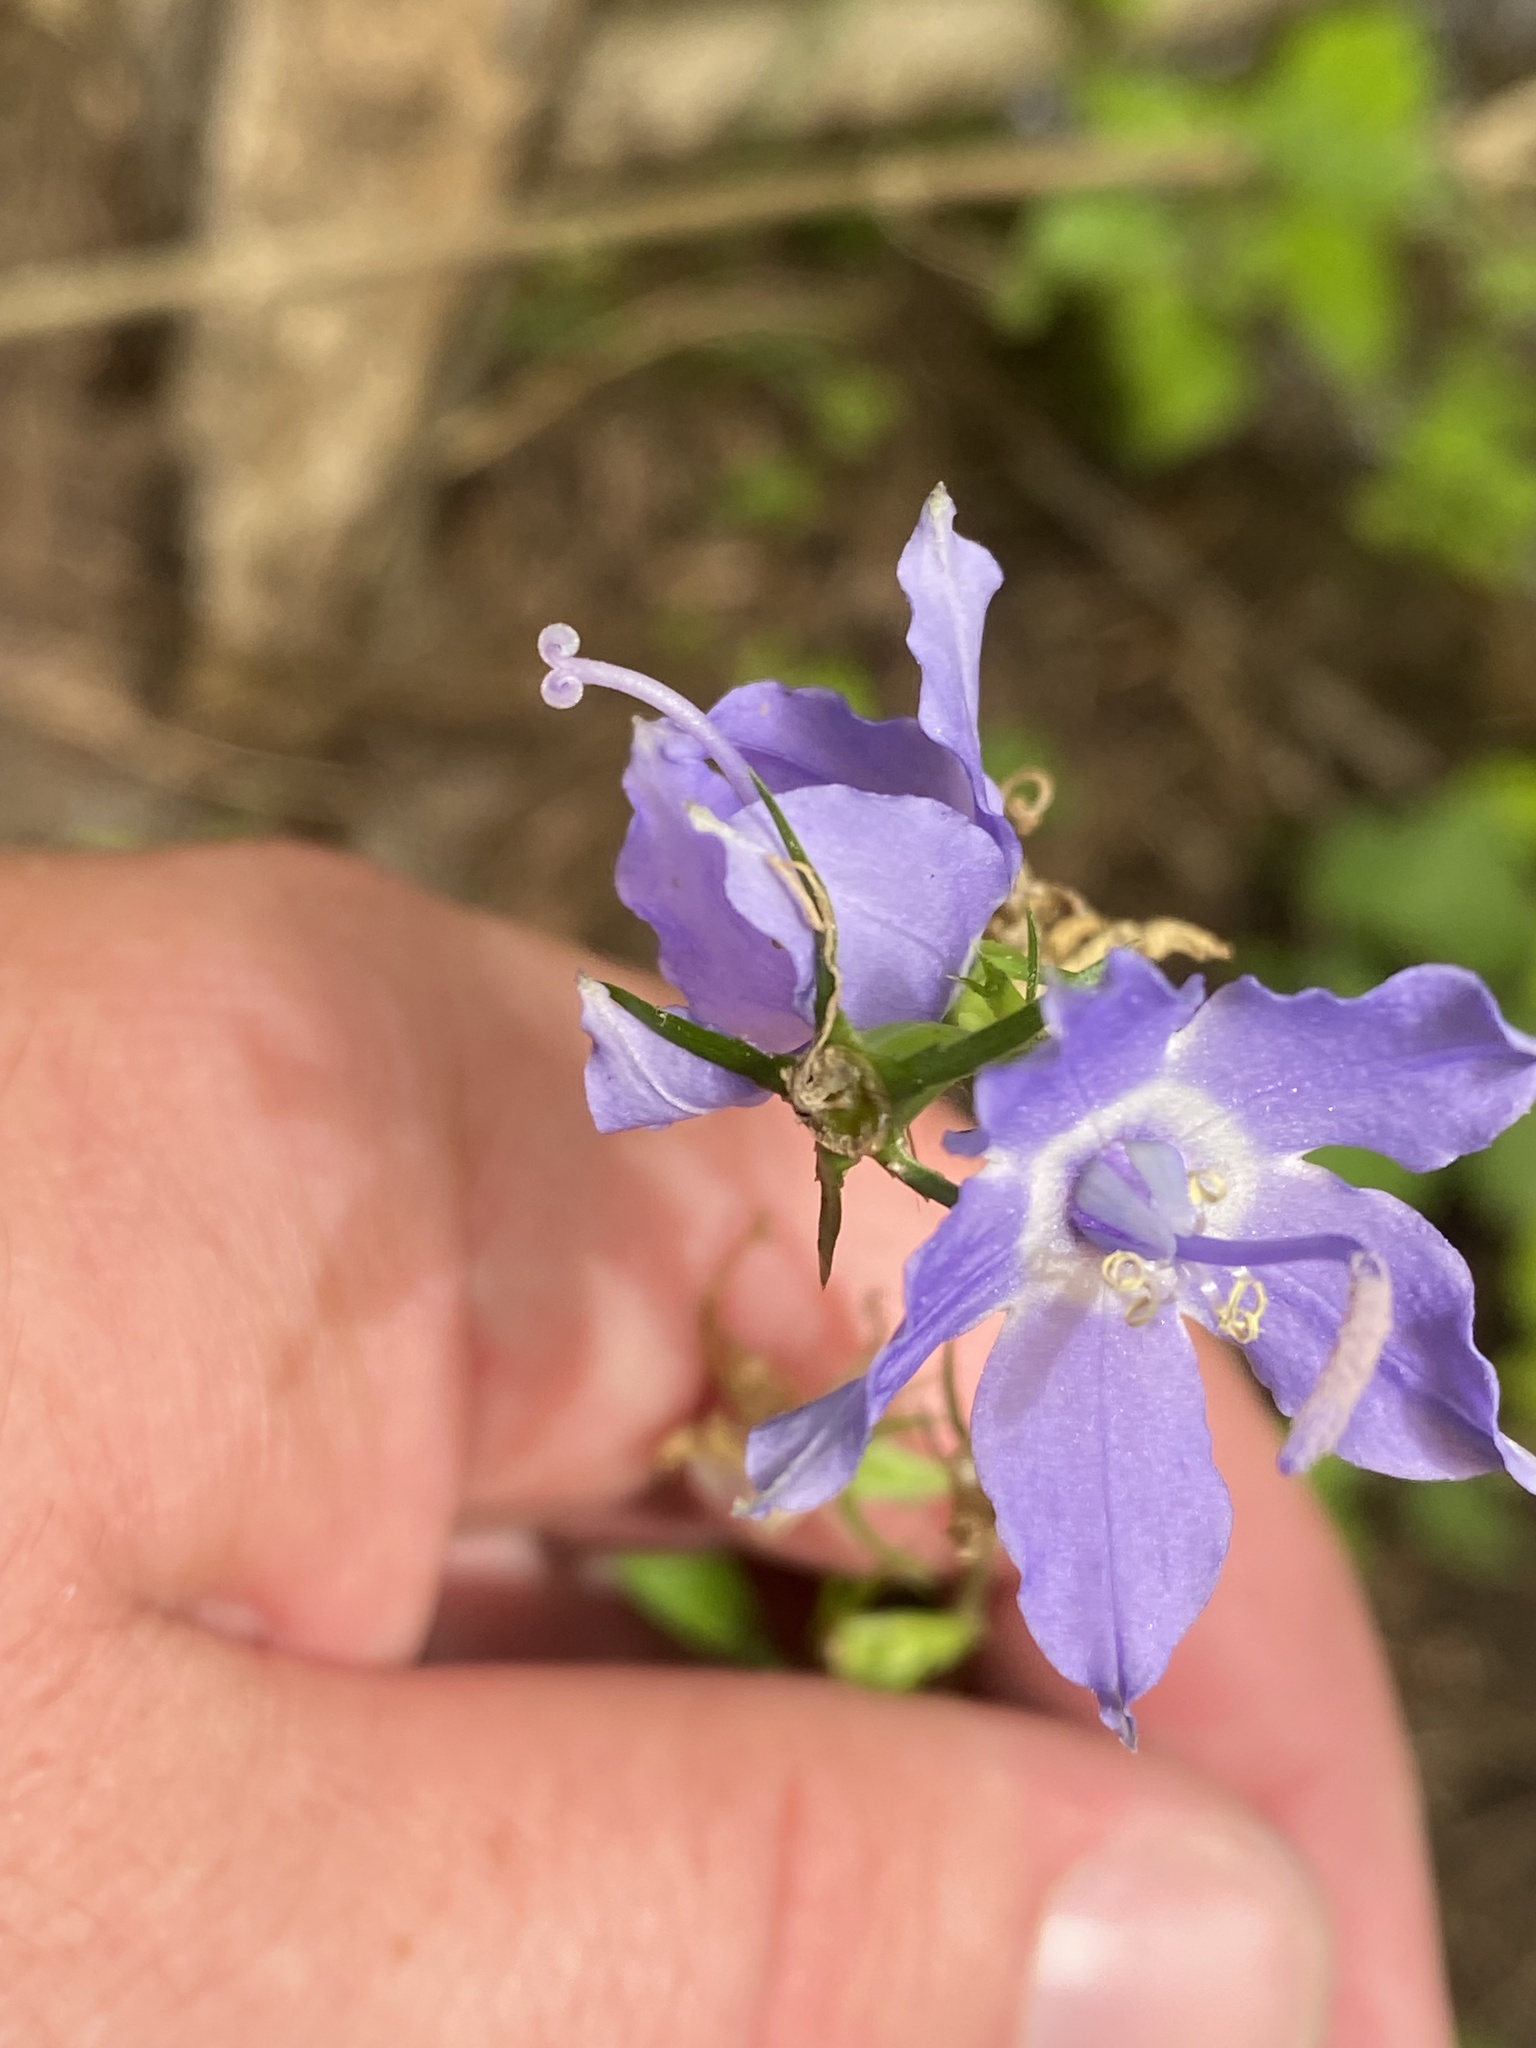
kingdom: Plantae
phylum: Tracheophyta
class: Magnoliopsida
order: Asterales
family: Campanulaceae
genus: Campanulastrum
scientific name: Campanulastrum americanum
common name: American bellflower
